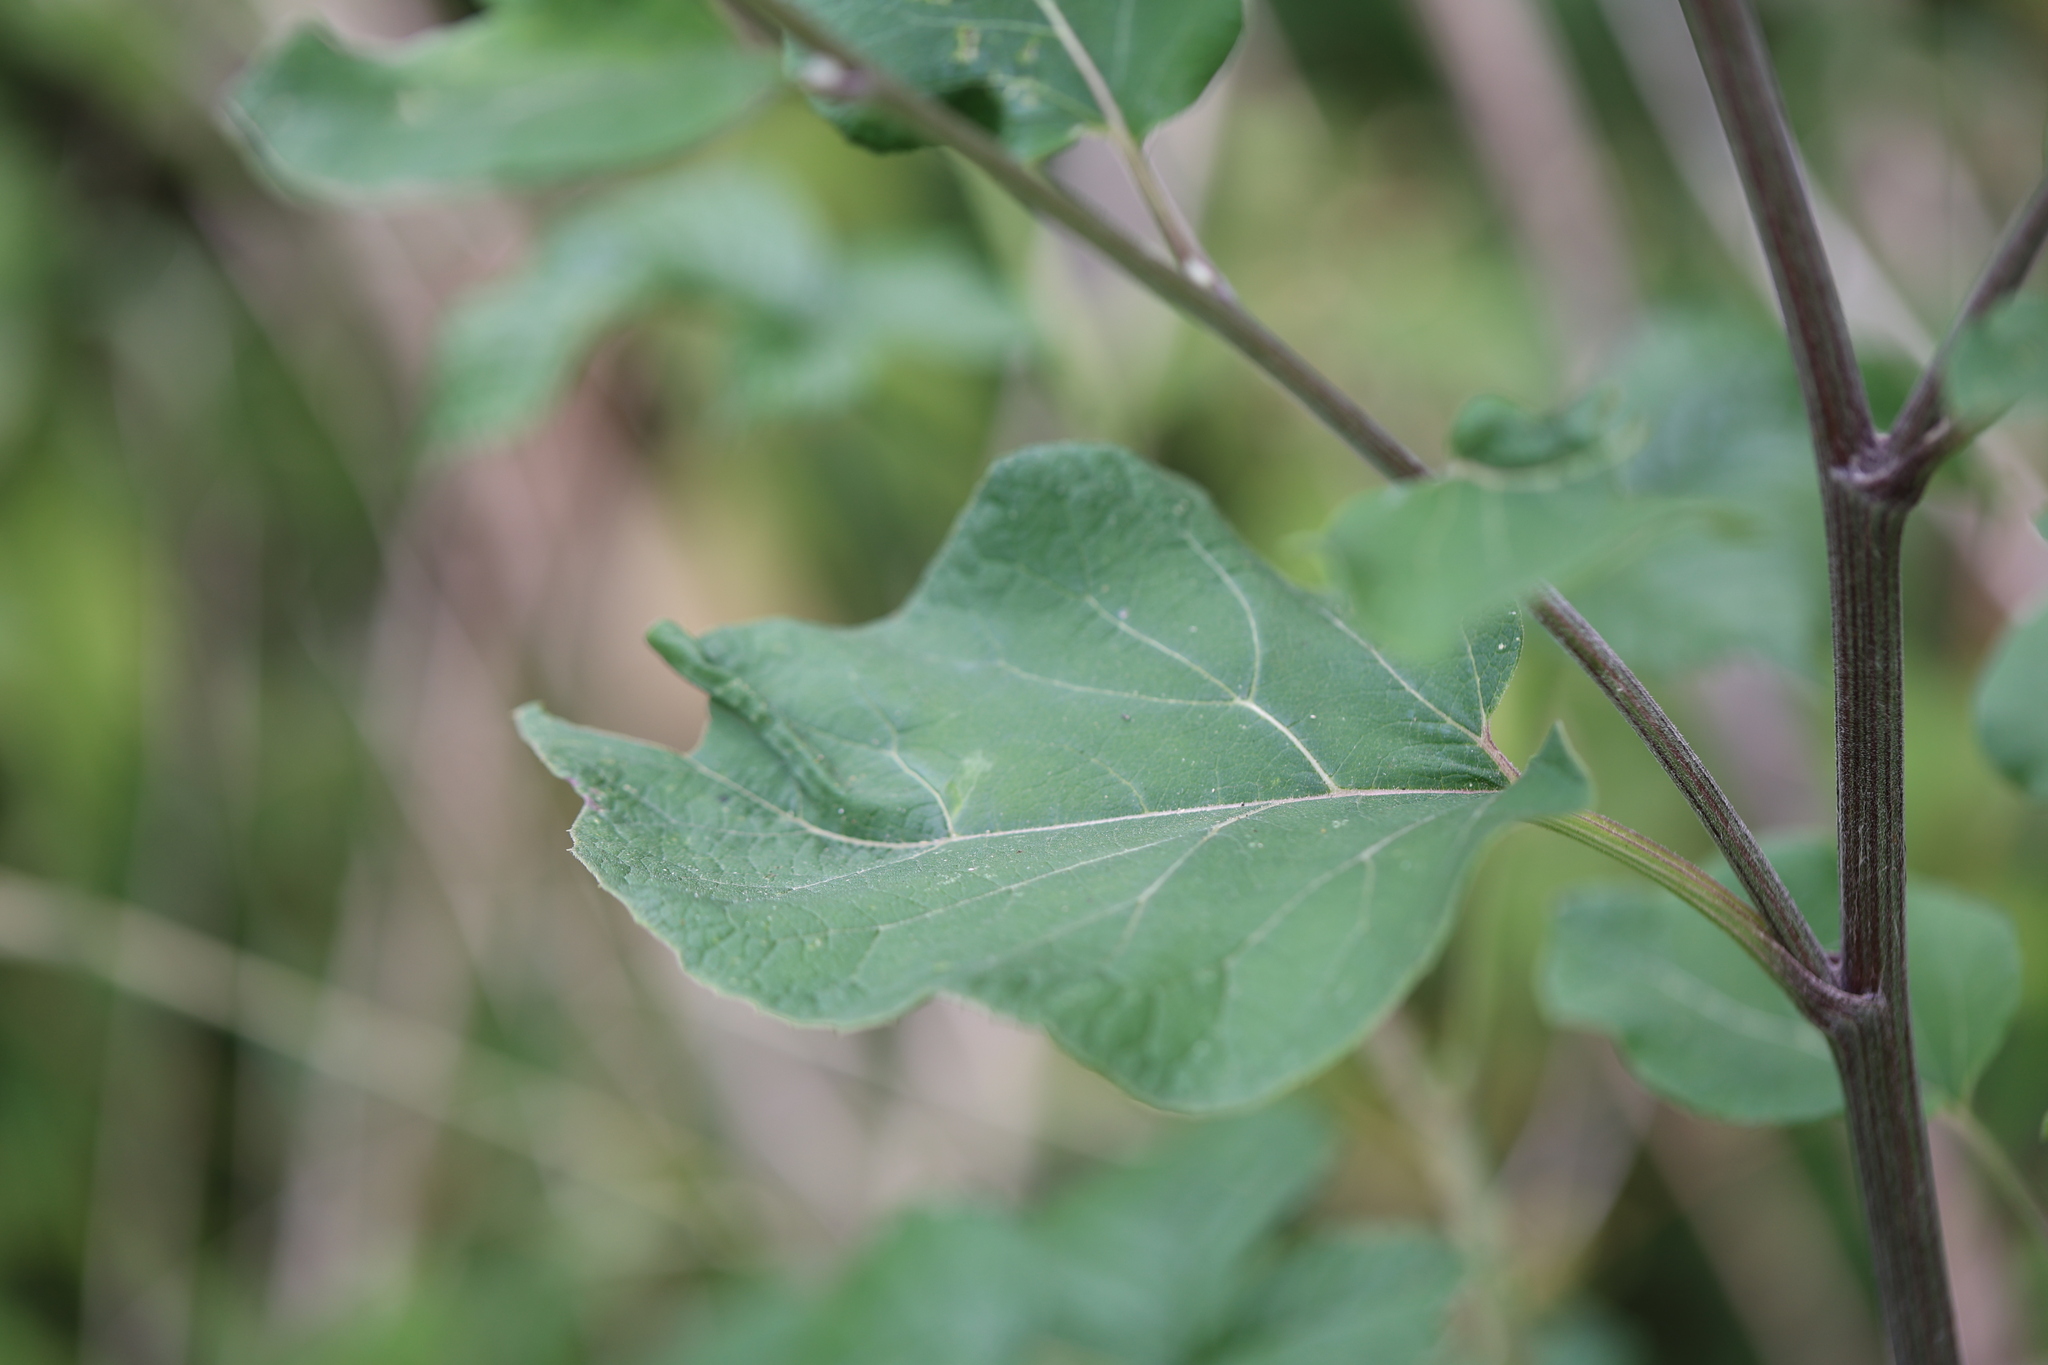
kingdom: Plantae
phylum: Tracheophyta
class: Magnoliopsida
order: Asterales
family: Asteraceae
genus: Arctium
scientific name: Arctium tomentosum
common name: Woolly burdock
